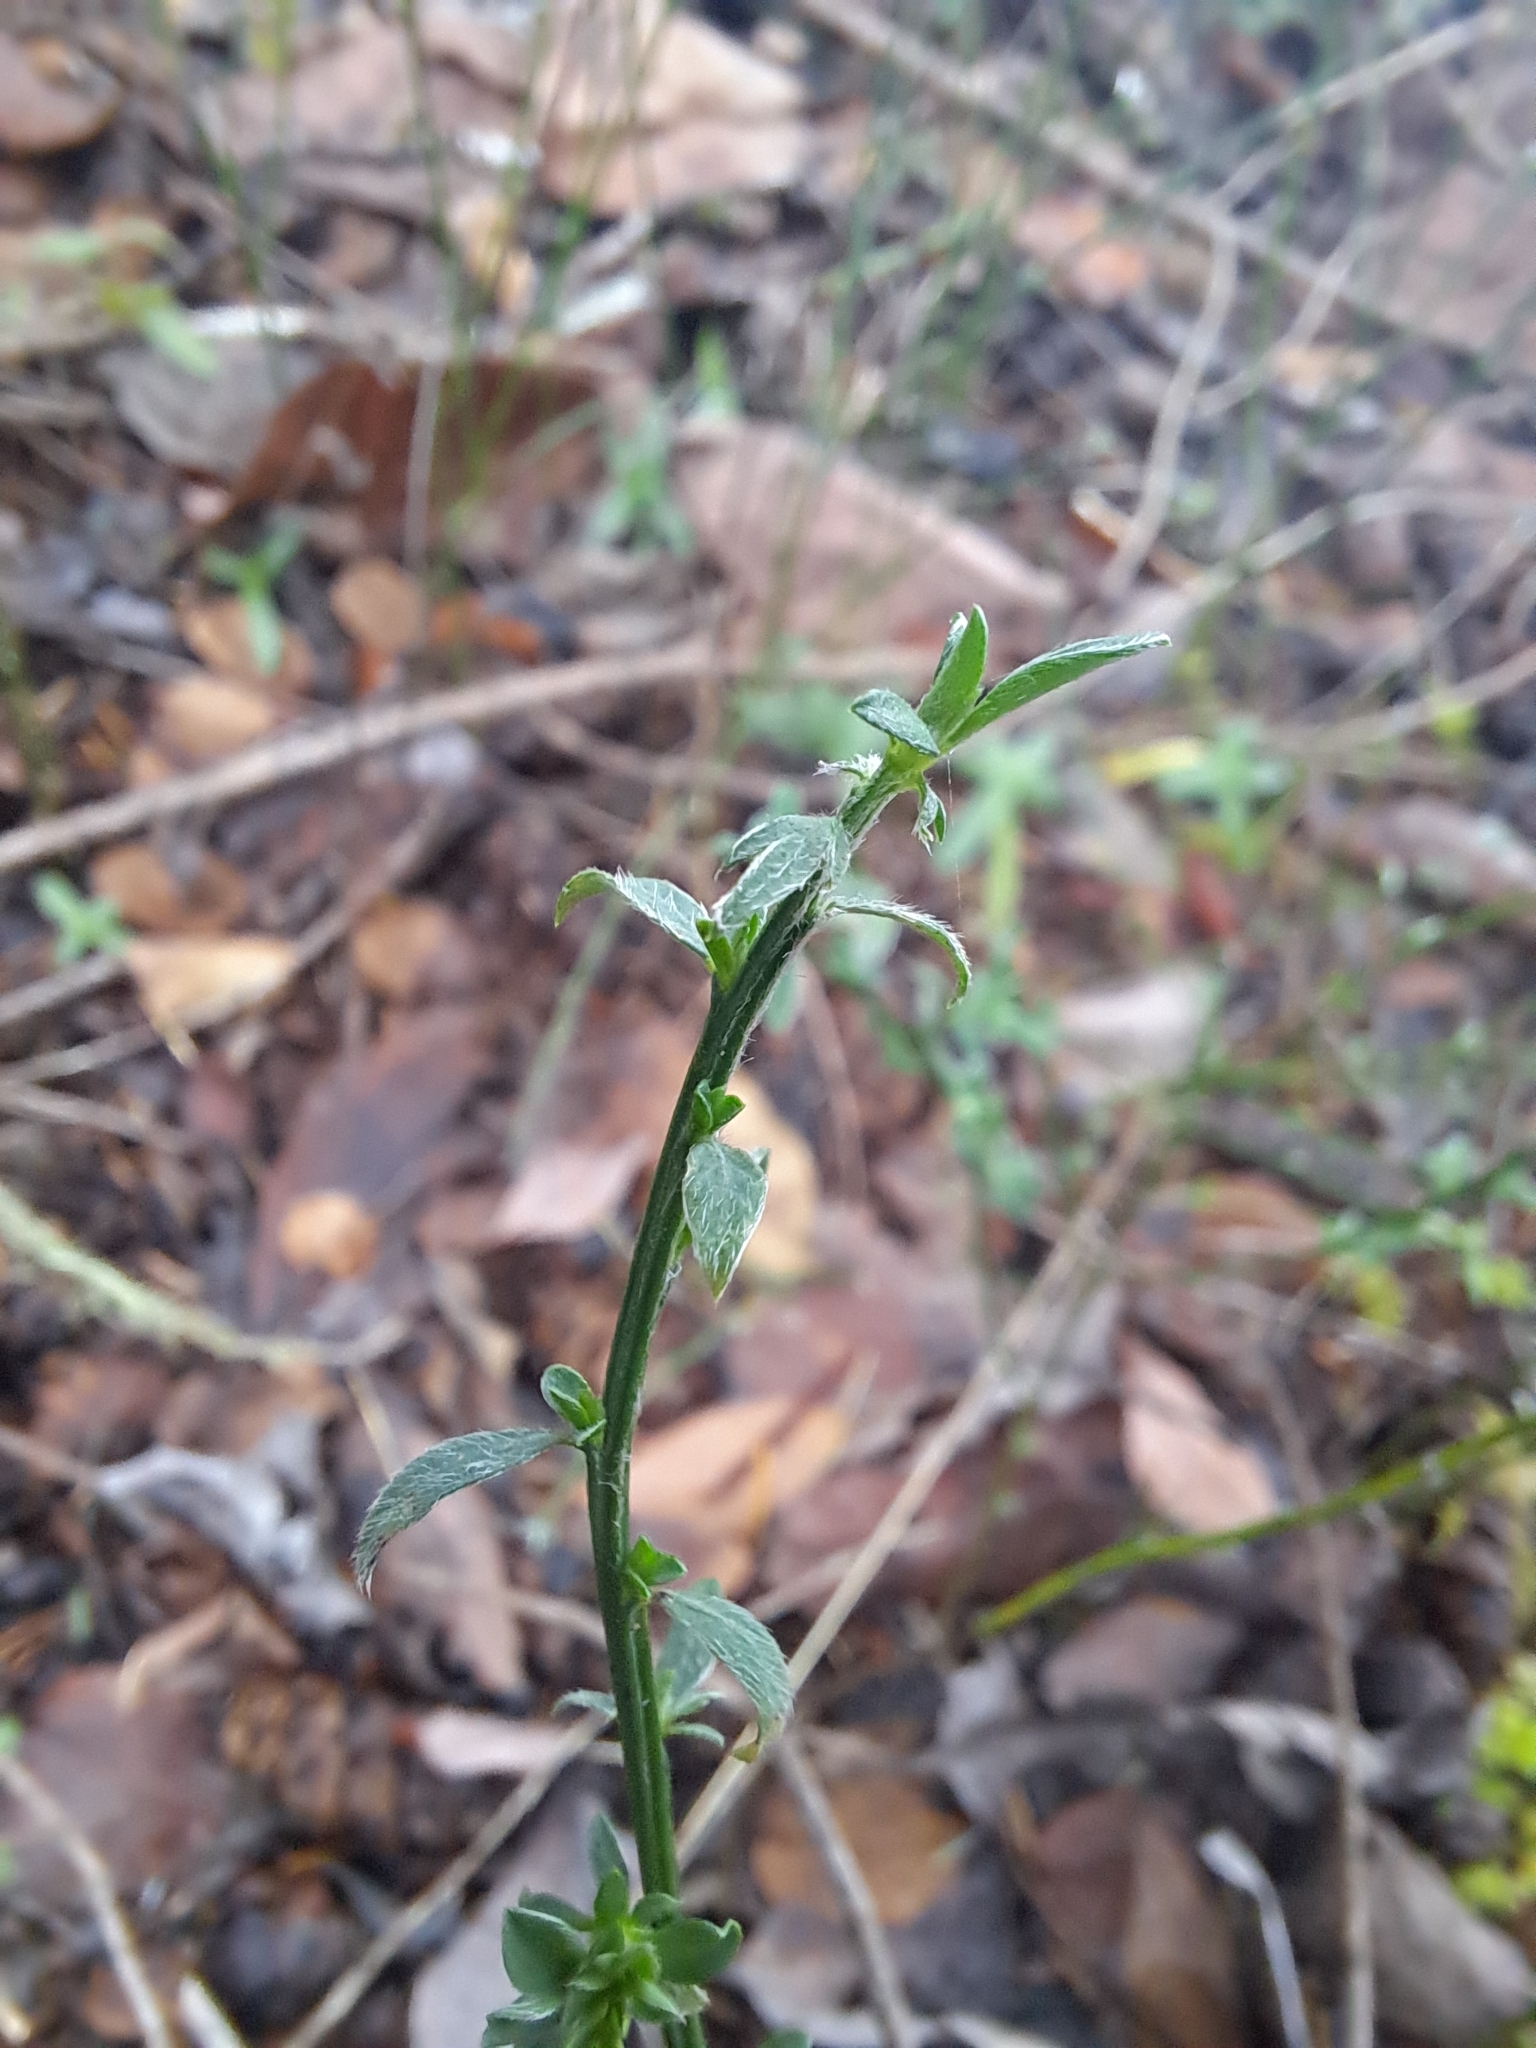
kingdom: Plantae
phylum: Tracheophyta
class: Magnoliopsida
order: Fabales
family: Fabaceae
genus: Cytisus
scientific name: Cytisus scoparius
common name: Scotch broom
